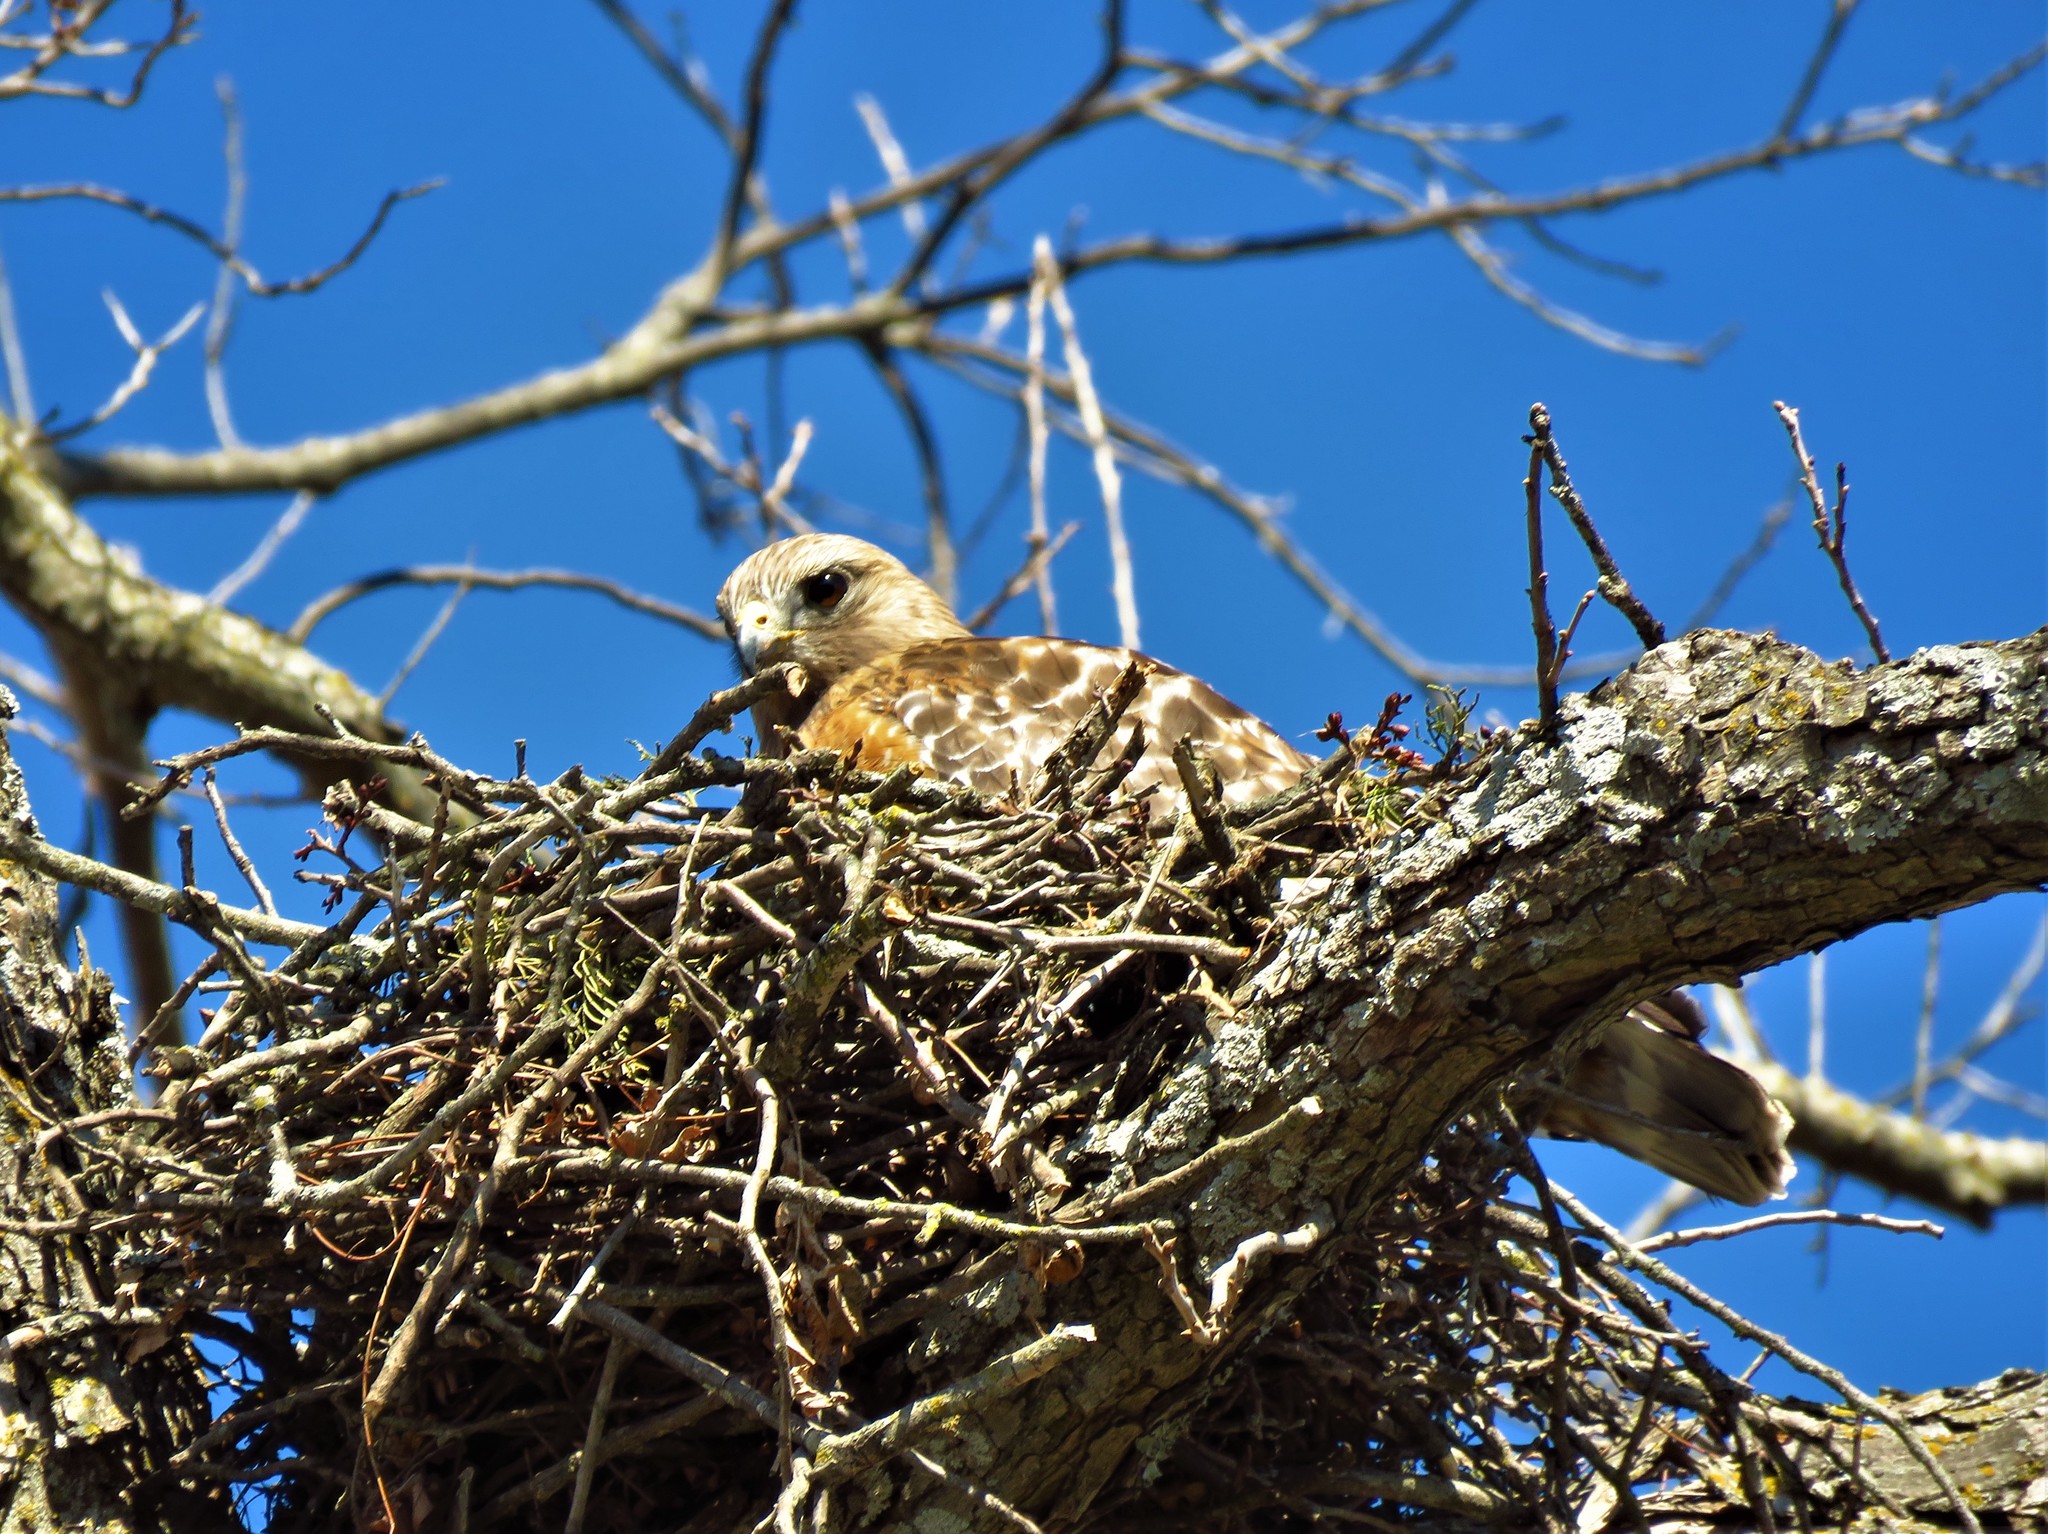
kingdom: Animalia
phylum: Chordata
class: Aves
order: Accipitriformes
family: Accipitridae
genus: Buteo
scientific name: Buteo lineatus
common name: Red-shouldered hawk
